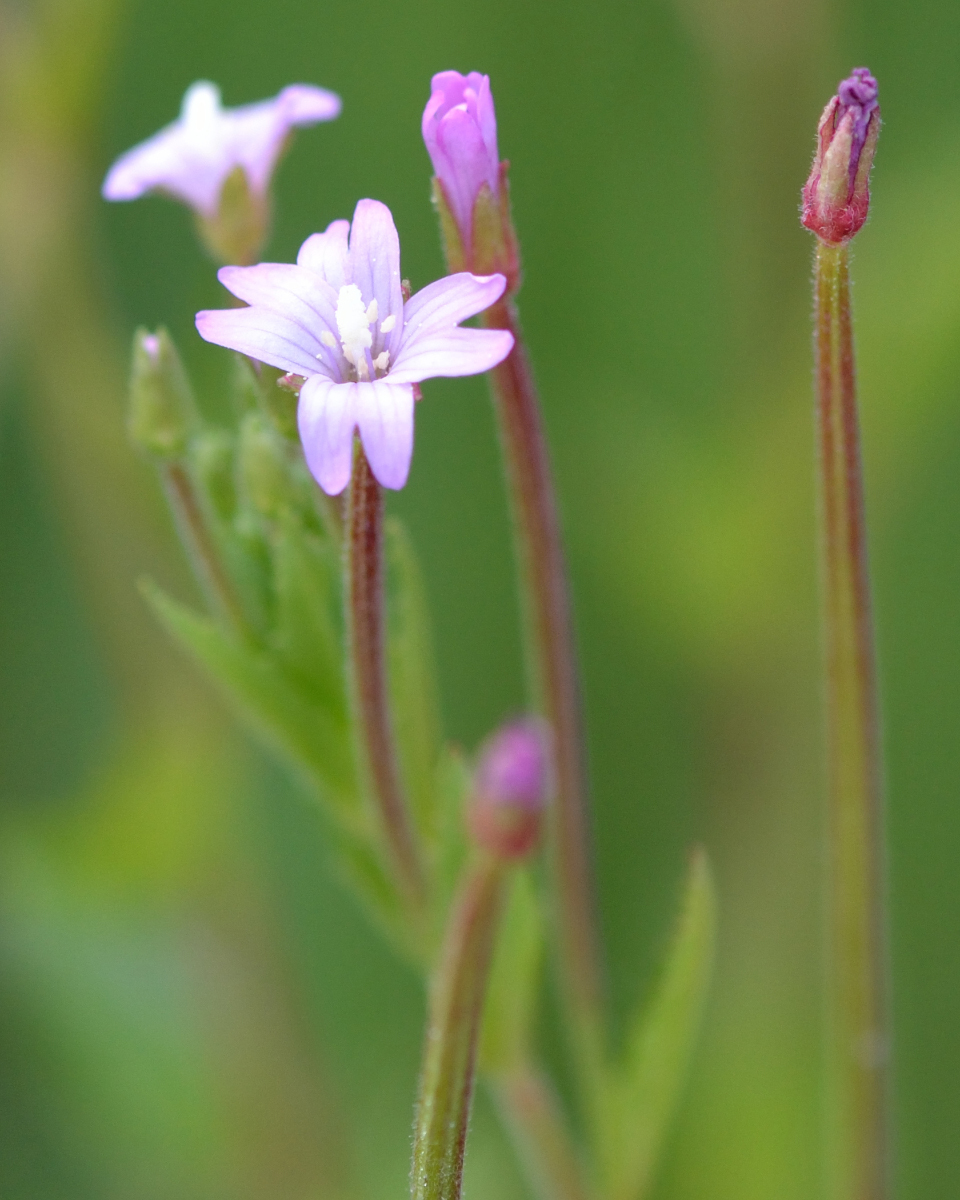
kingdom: Plantae
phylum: Tracheophyta
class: Magnoliopsida
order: Myrtales
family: Onagraceae
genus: Epilobium
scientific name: Epilobium ciliatum
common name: American willowherb
